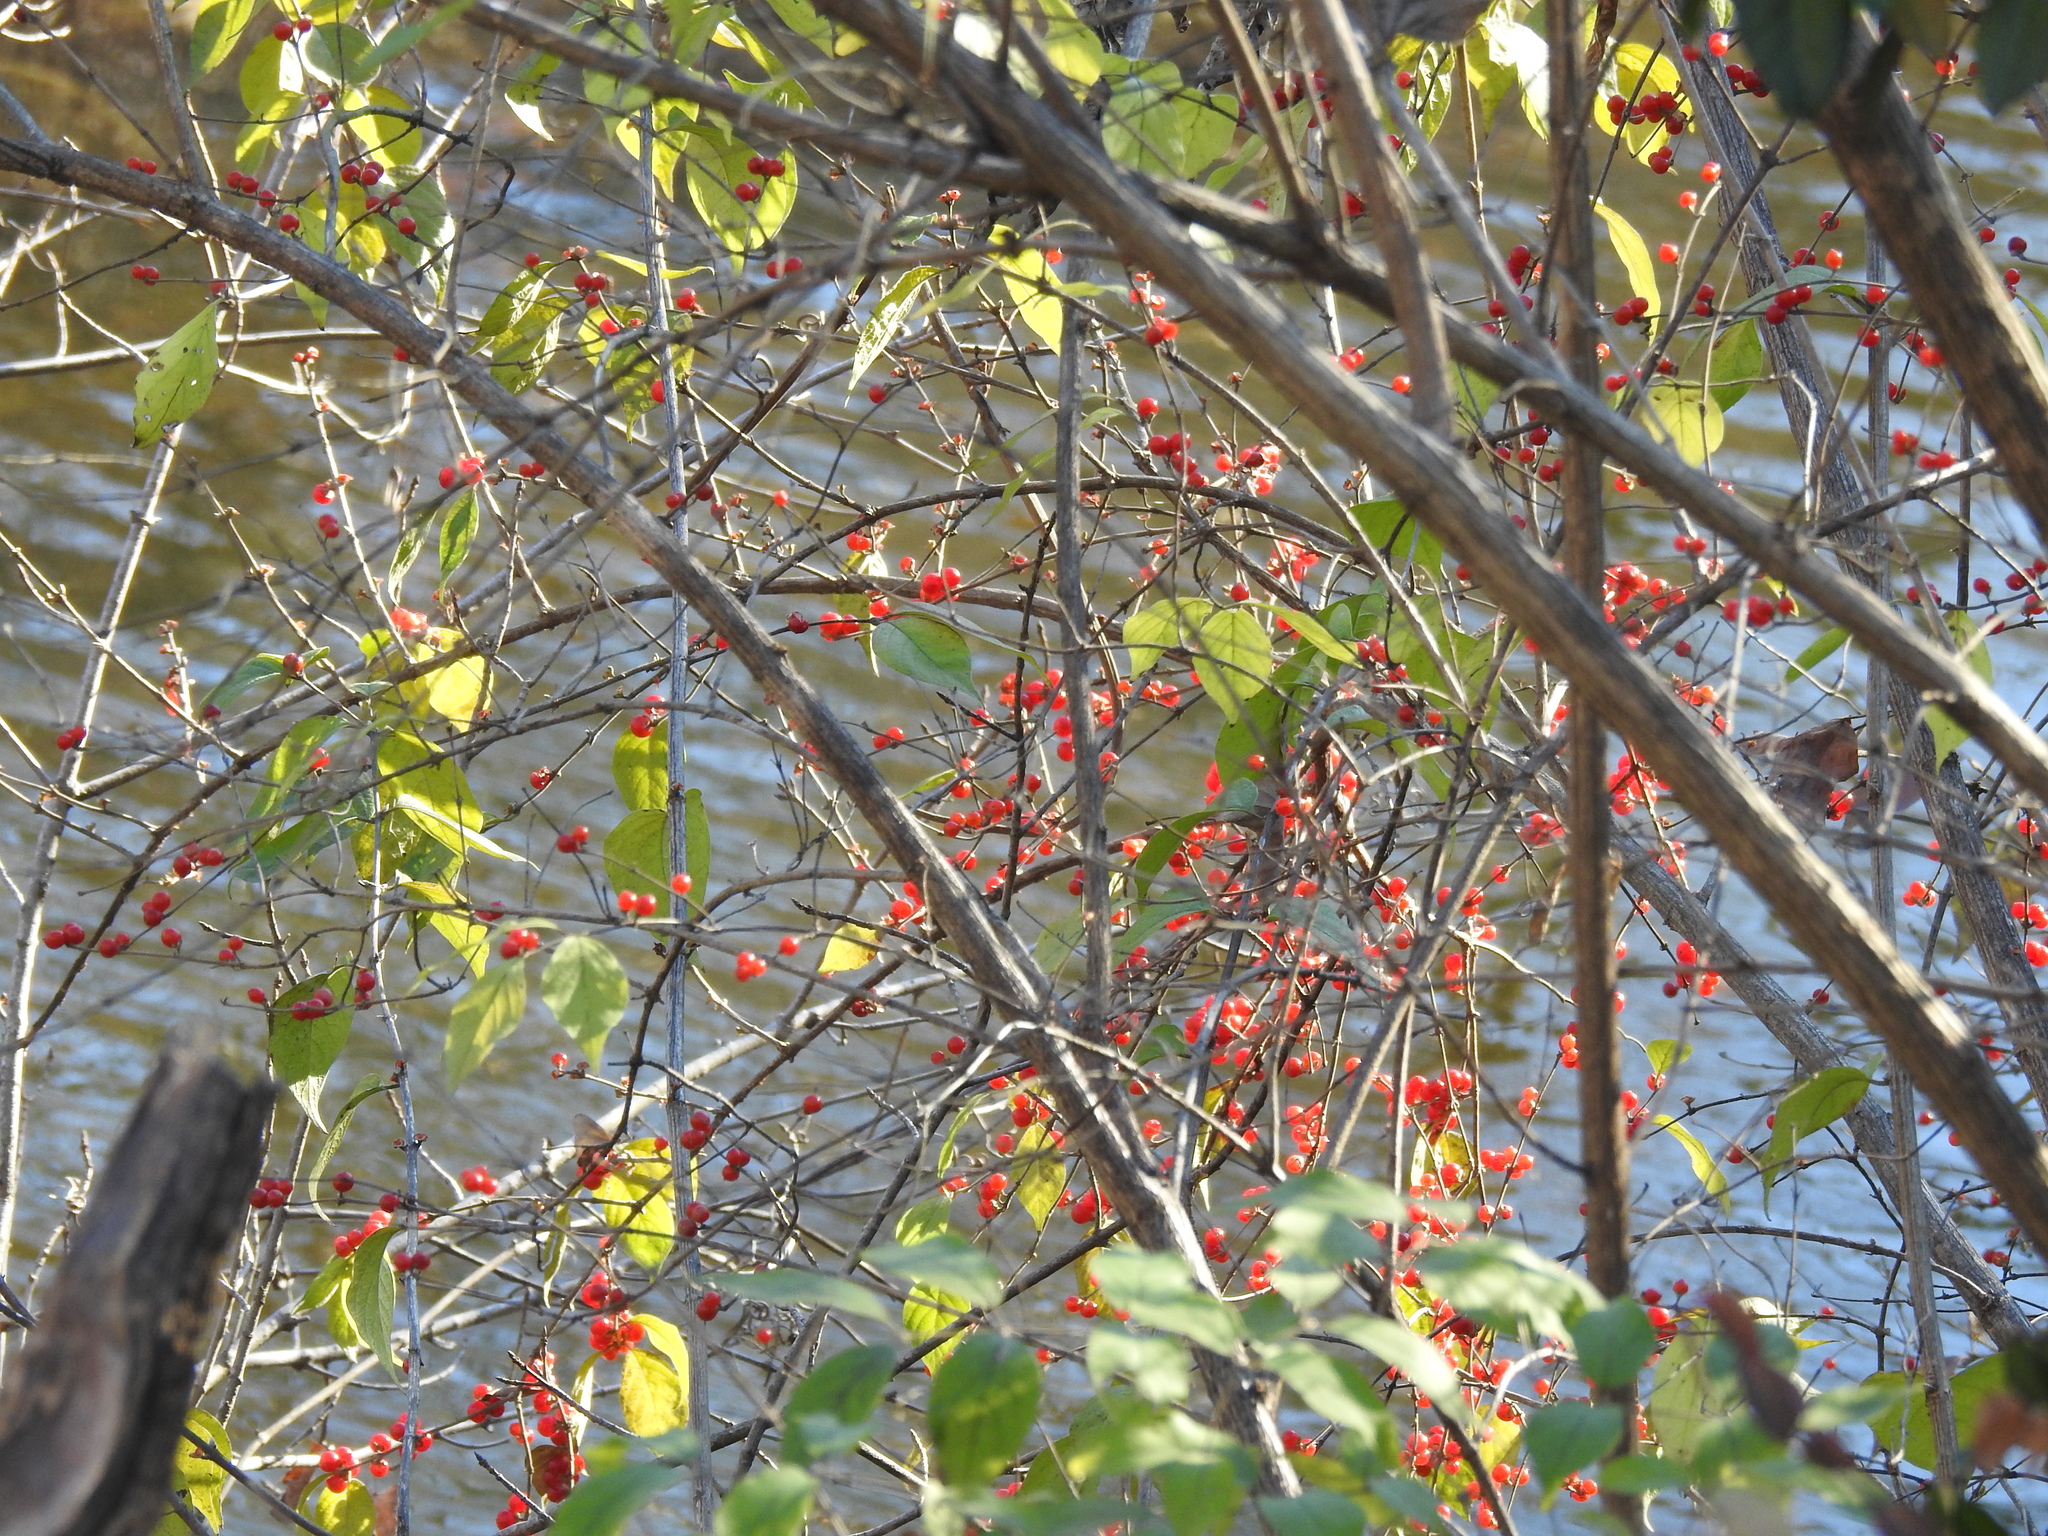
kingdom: Plantae
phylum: Tracheophyta
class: Magnoliopsida
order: Dipsacales
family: Caprifoliaceae
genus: Lonicera
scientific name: Lonicera maackii
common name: Amur honeysuckle
